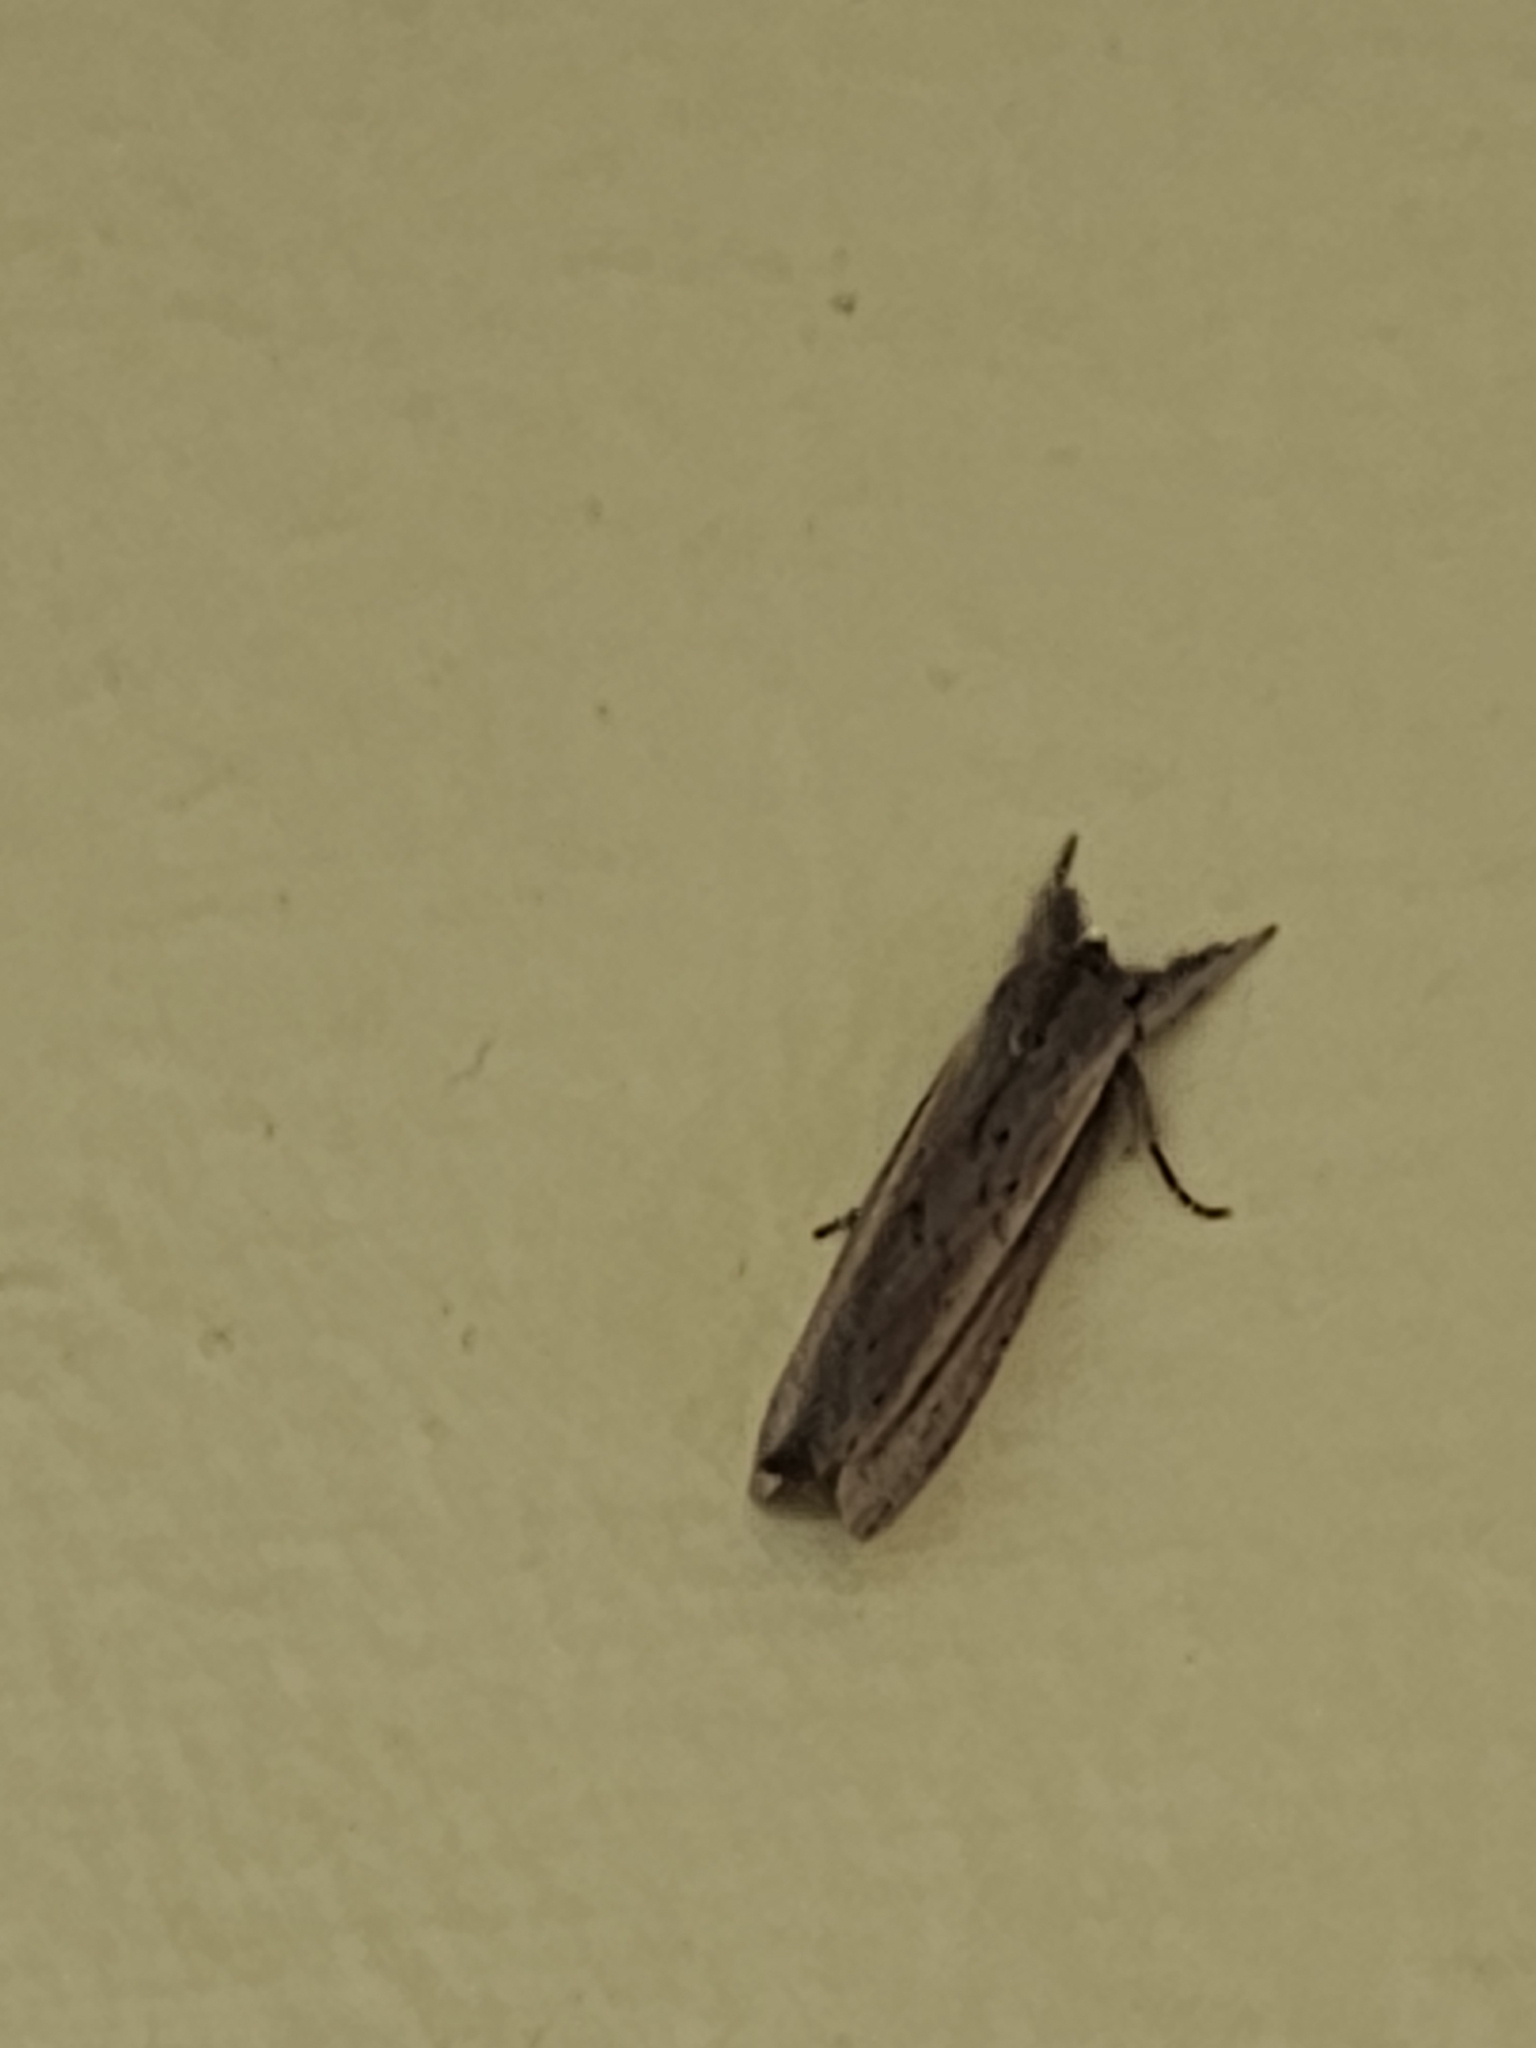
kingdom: Animalia
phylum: Arthropoda
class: Insecta
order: Lepidoptera
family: Notodontidae
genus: Trajectina
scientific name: Trajectina
